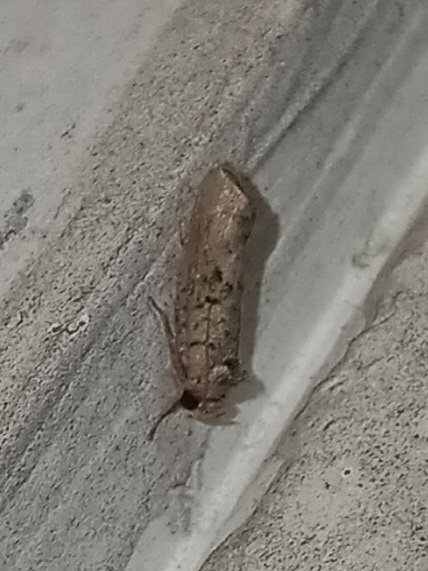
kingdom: Animalia
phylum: Arthropoda
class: Insecta
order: Lepidoptera
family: Tineidae
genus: Acrolophus
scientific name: Acrolophus piger
